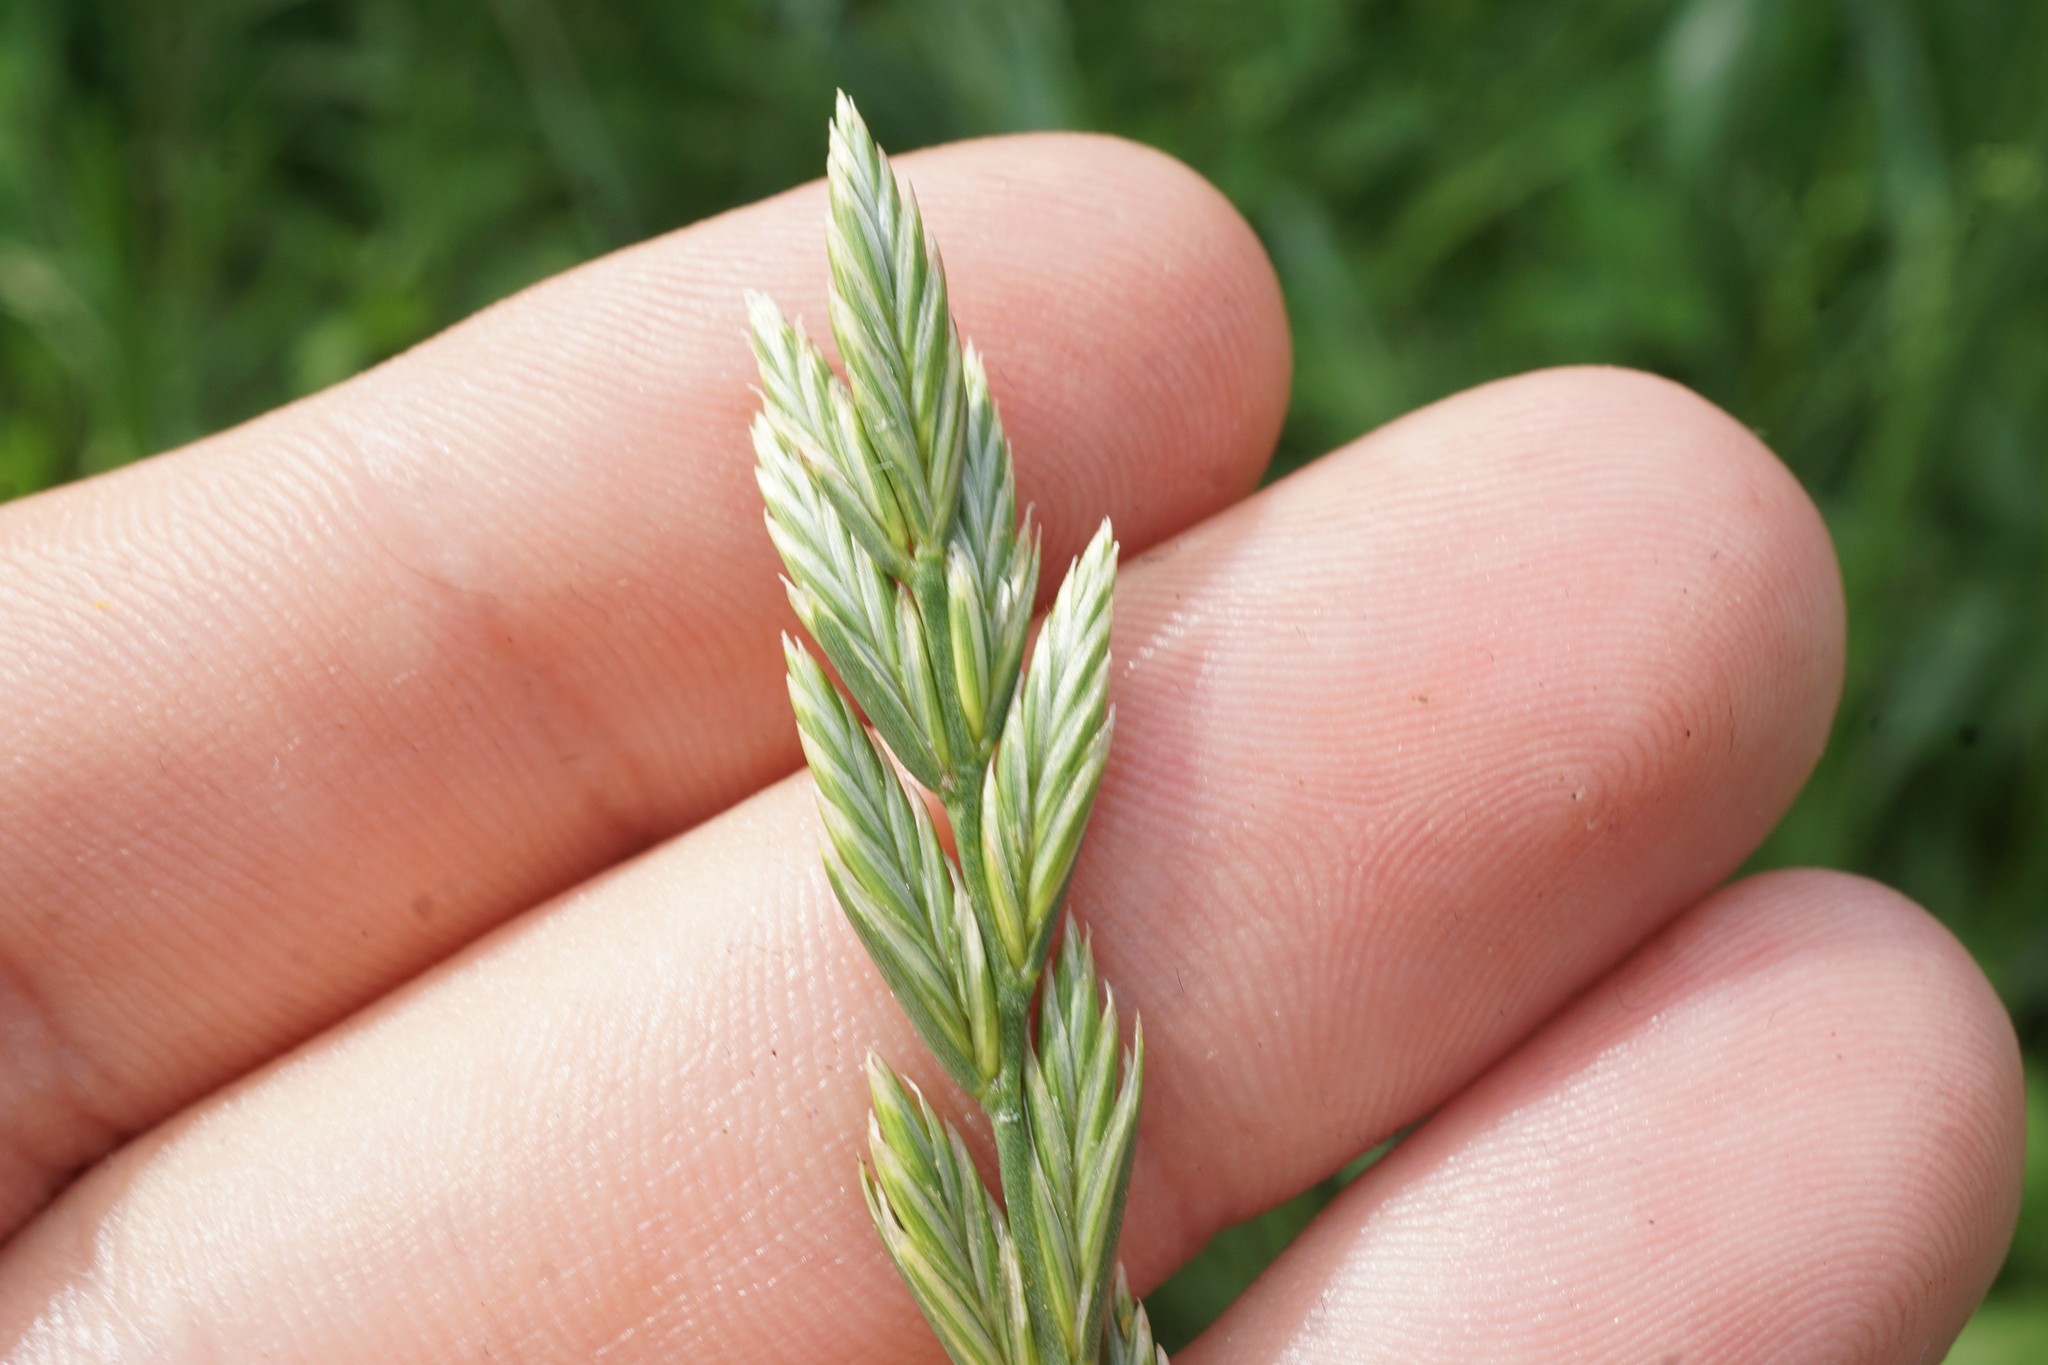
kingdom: Plantae
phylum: Tracheophyta
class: Liliopsida
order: Poales
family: Poaceae
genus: Lolium
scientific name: Lolium perenne
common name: Perennial ryegrass
